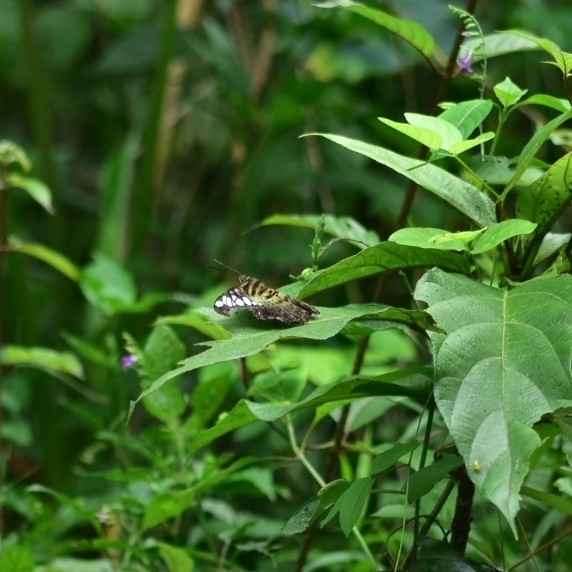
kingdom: Animalia
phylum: Arthropoda
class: Insecta
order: Lepidoptera
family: Nymphalidae
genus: Kallima
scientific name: Kallima sylvia
